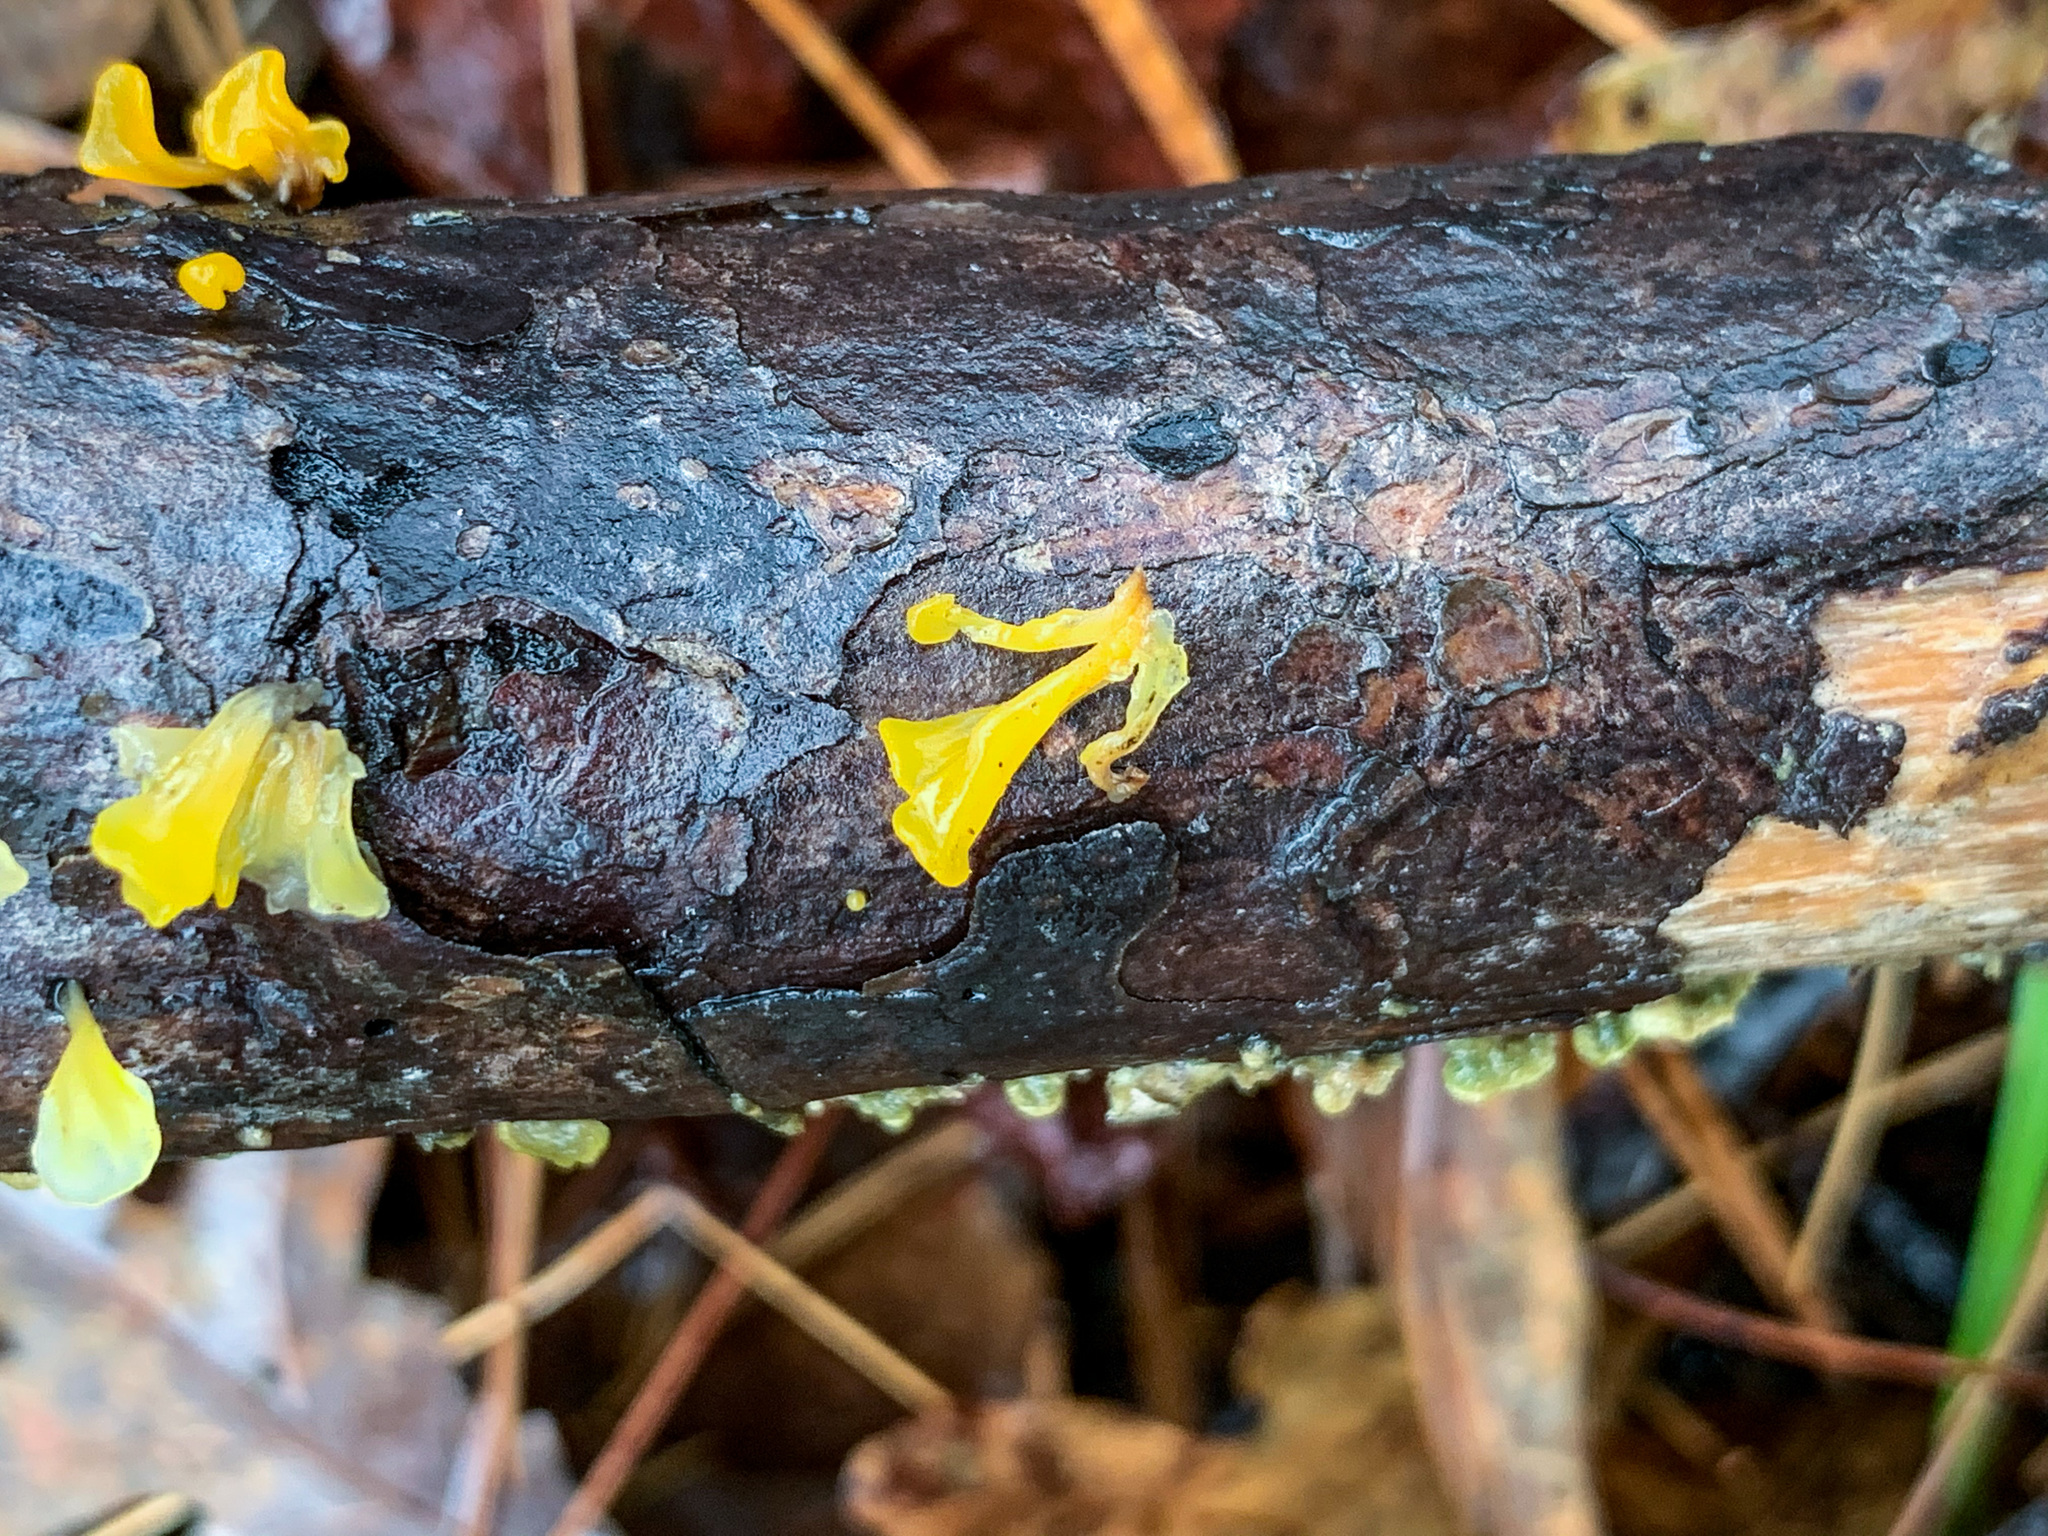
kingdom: Fungi
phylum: Basidiomycota
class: Dacrymycetes
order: Dacrymycetales
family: Dacrymycetaceae
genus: Dacrymyces
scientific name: Dacrymyces spathularius
